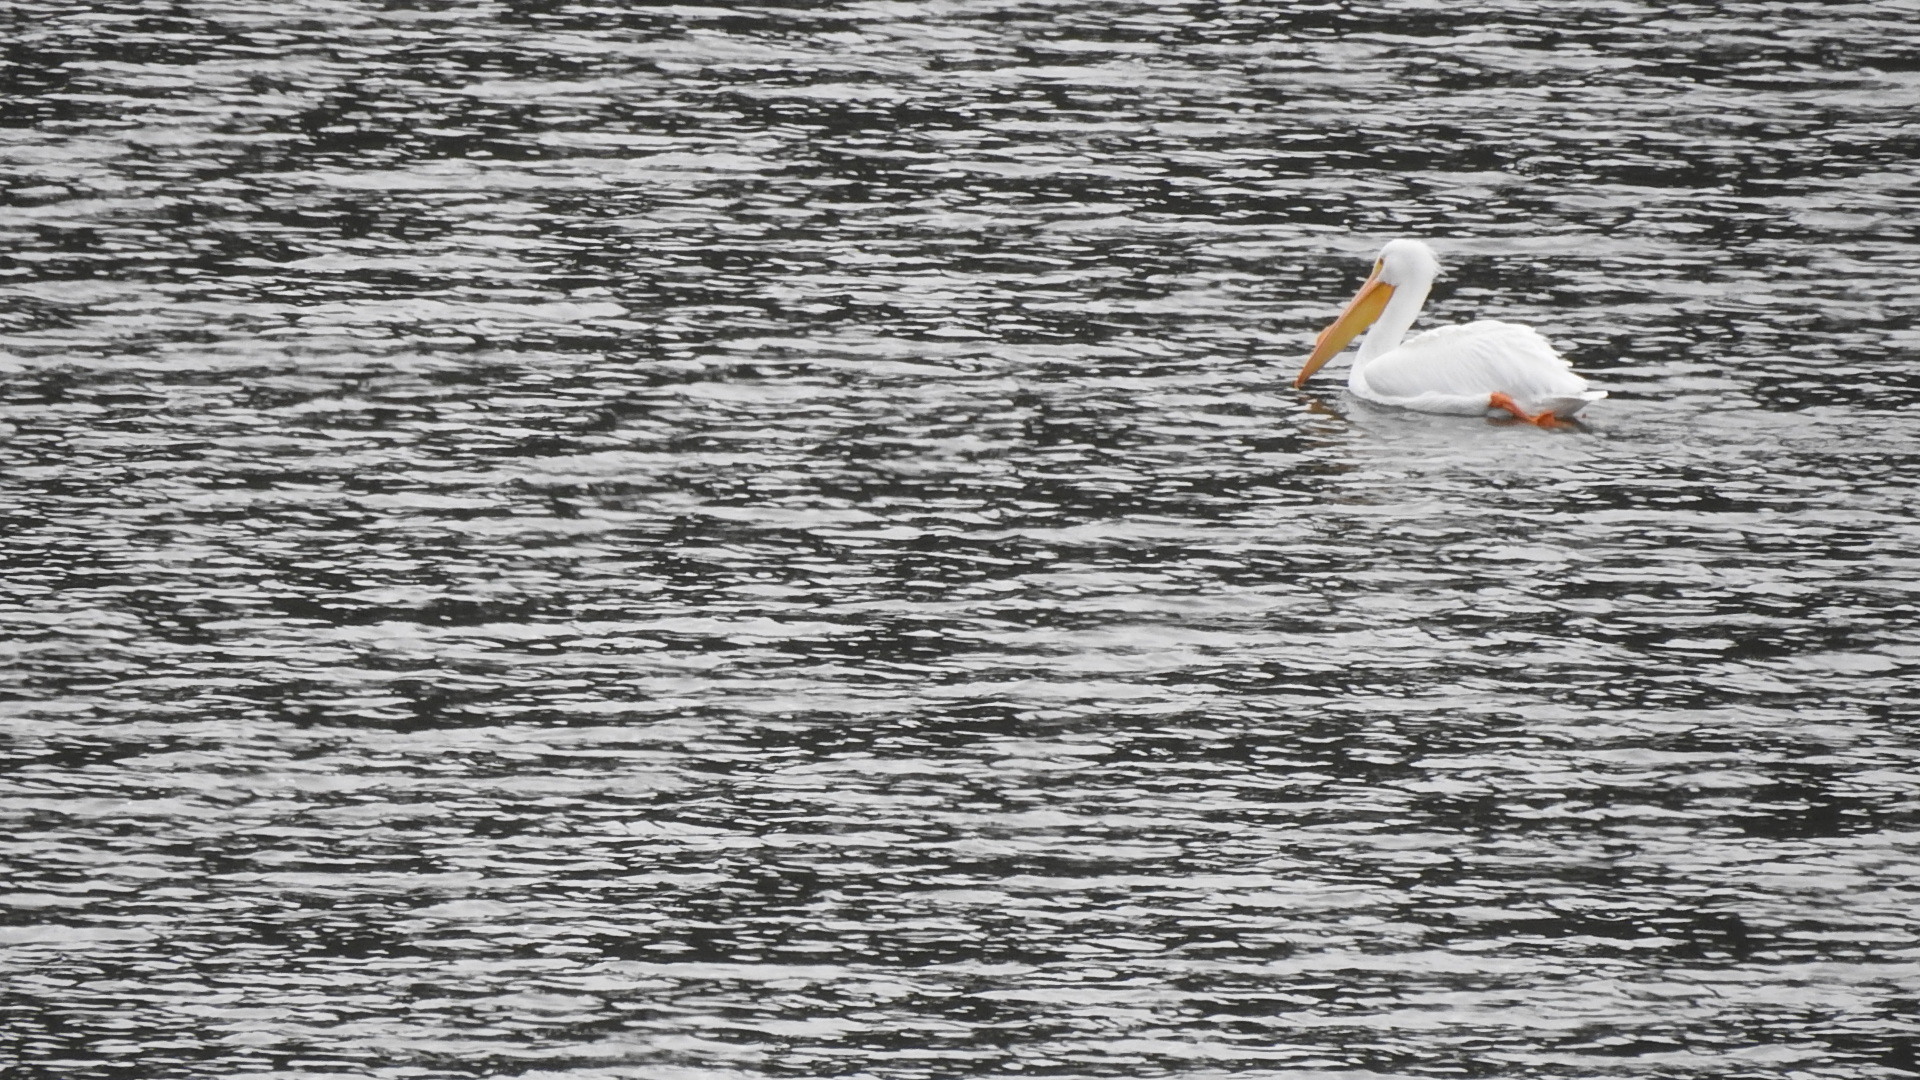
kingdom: Animalia
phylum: Chordata
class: Aves
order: Pelecaniformes
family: Pelecanidae
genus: Pelecanus
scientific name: Pelecanus erythrorhynchos
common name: American white pelican
